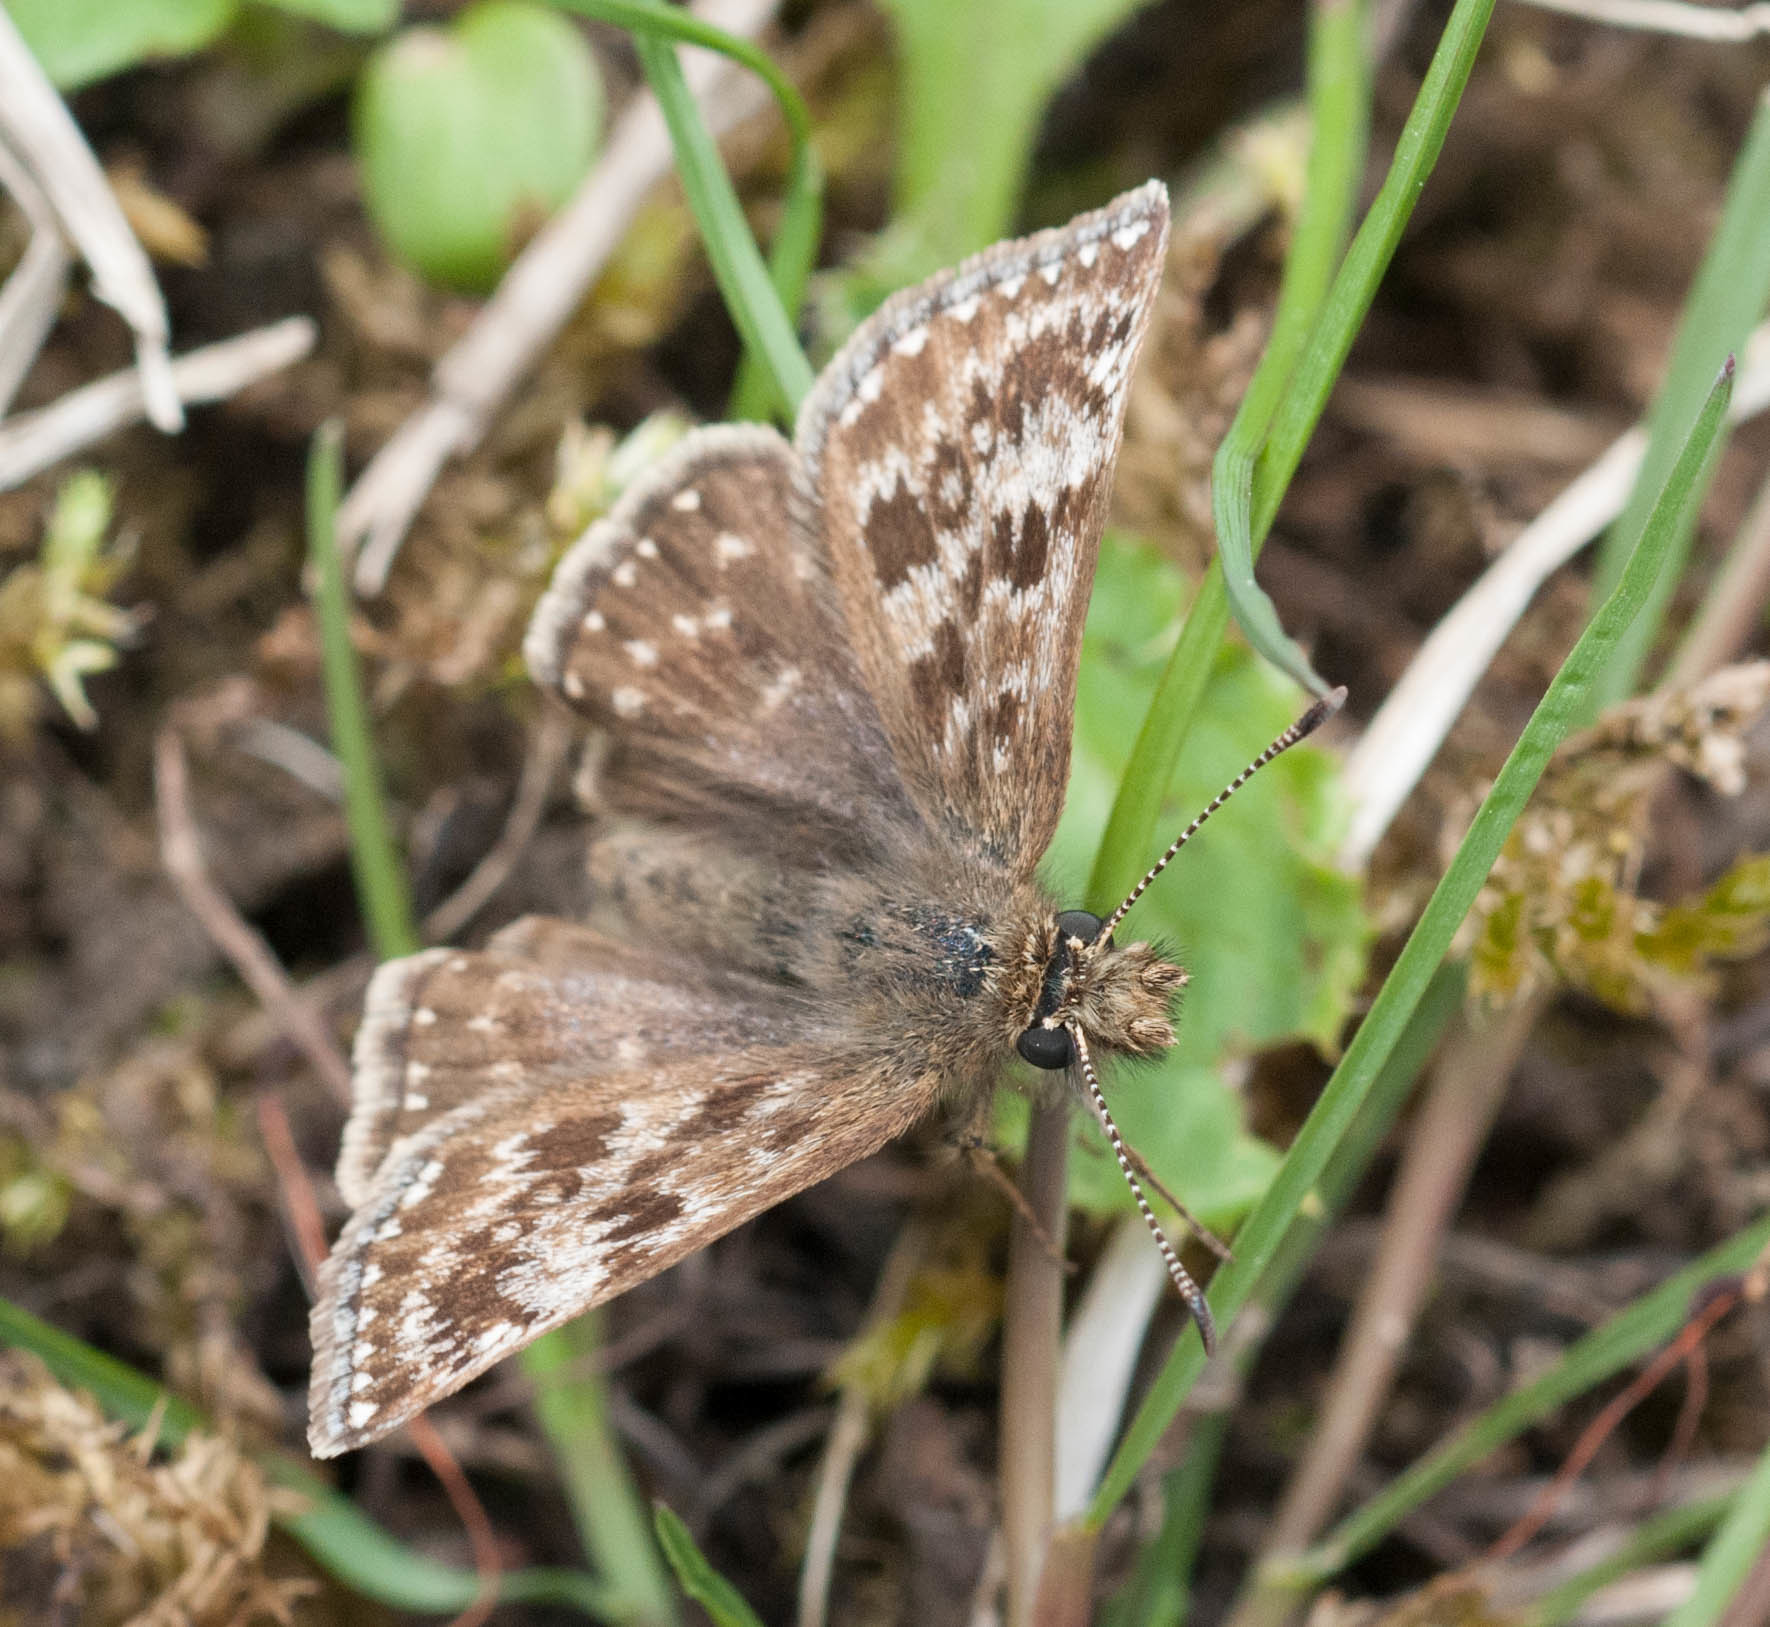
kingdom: Animalia
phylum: Arthropoda
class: Insecta
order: Lepidoptera
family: Hesperiidae
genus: Erynnis
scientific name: Erynnis tages
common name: Dingy skipper
